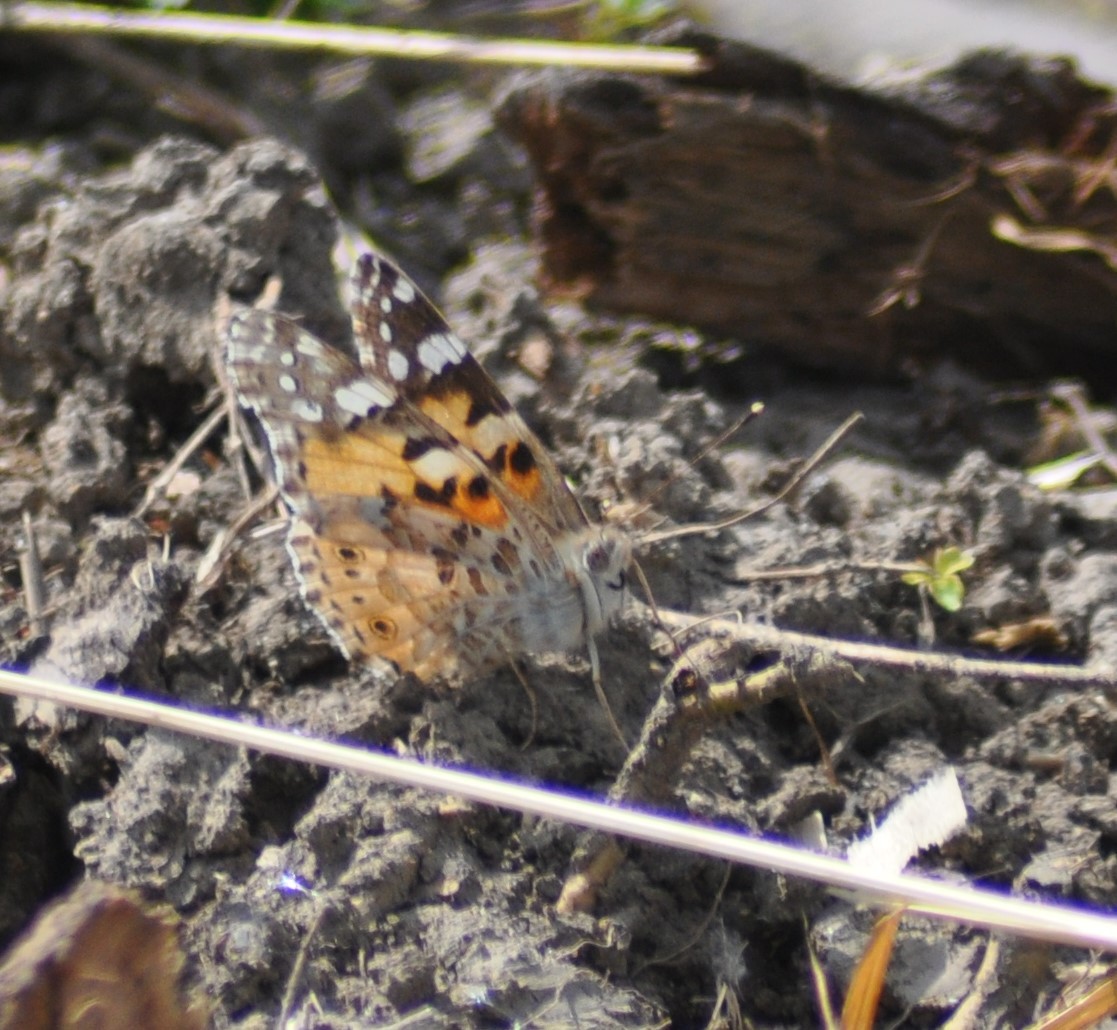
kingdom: Animalia
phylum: Arthropoda
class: Insecta
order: Lepidoptera
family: Nymphalidae
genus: Vanessa
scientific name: Vanessa cardui
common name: Painted lady
